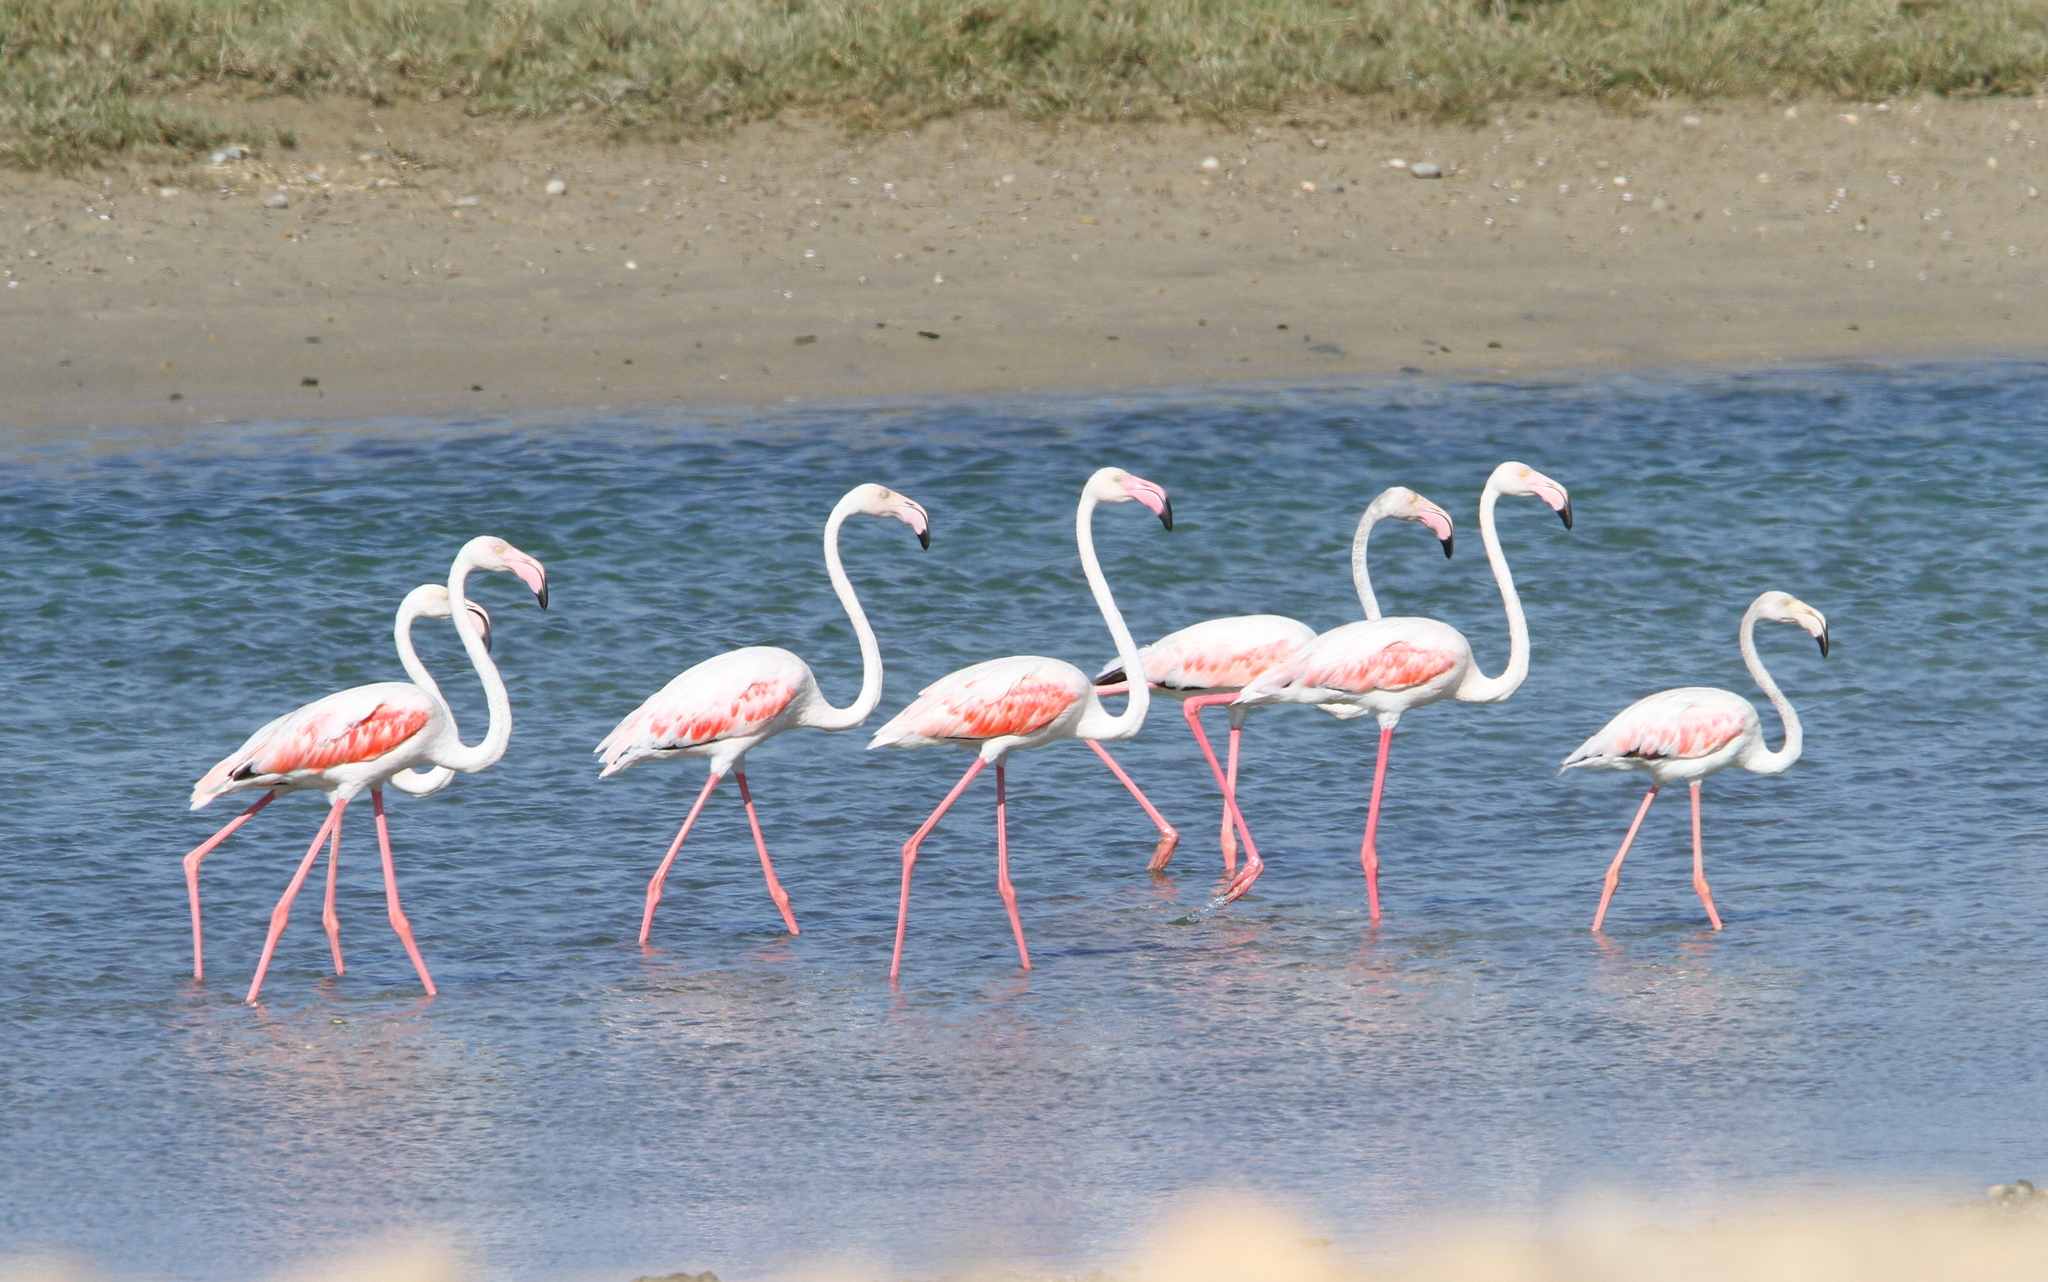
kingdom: Animalia
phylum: Chordata
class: Aves
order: Phoenicopteriformes
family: Phoenicopteridae
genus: Phoenicopterus
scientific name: Phoenicopterus roseus
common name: Greater flamingo
